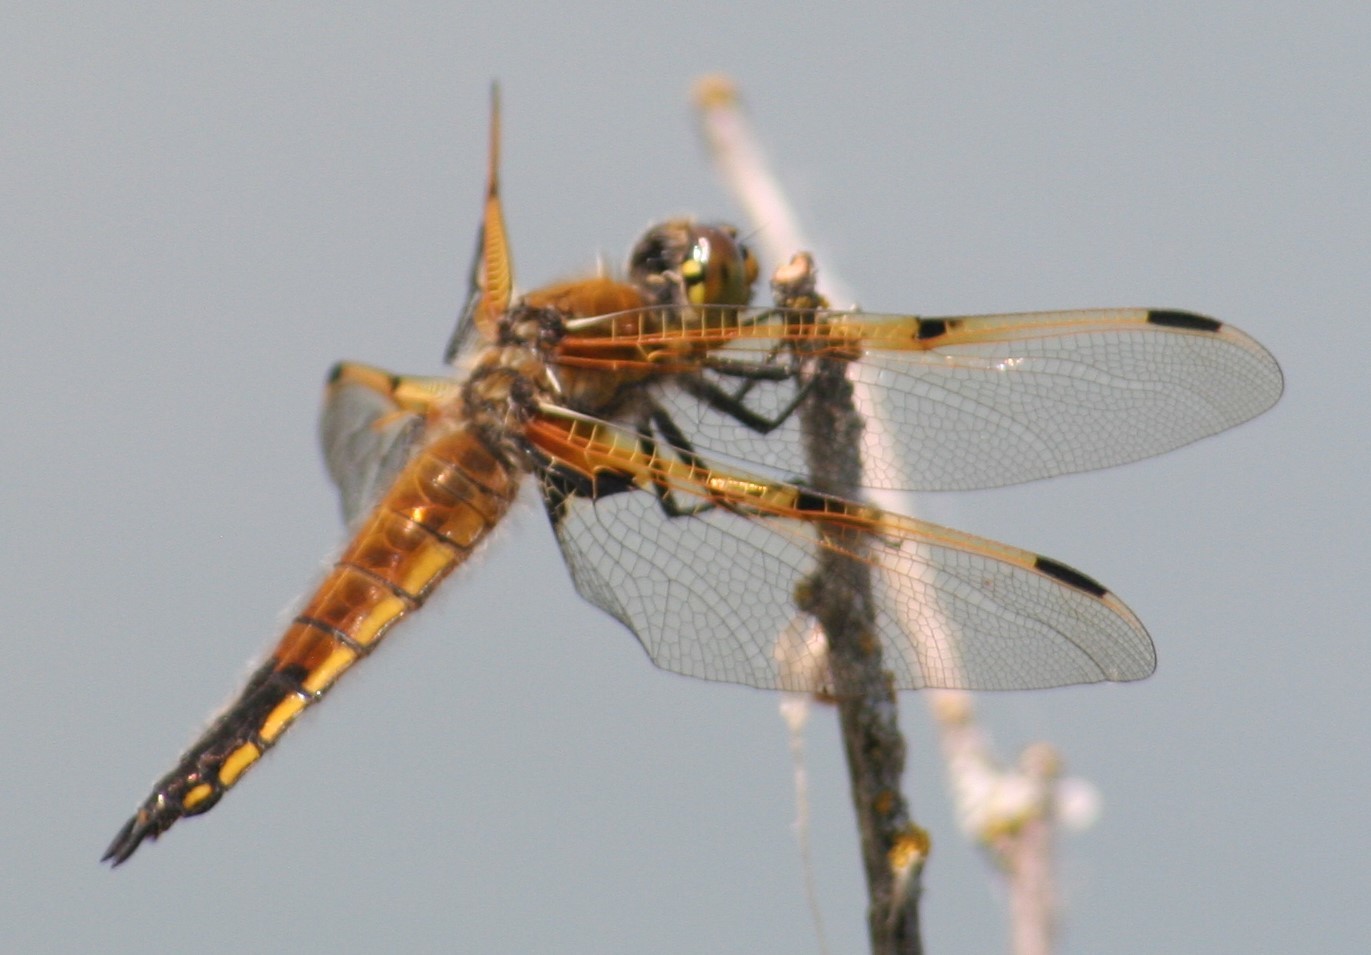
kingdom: Animalia
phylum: Arthropoda
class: Insecta
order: Odonata
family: Libellulidae
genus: Libellula
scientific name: Libellula quadrimaculata
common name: Four-spotted chaser
